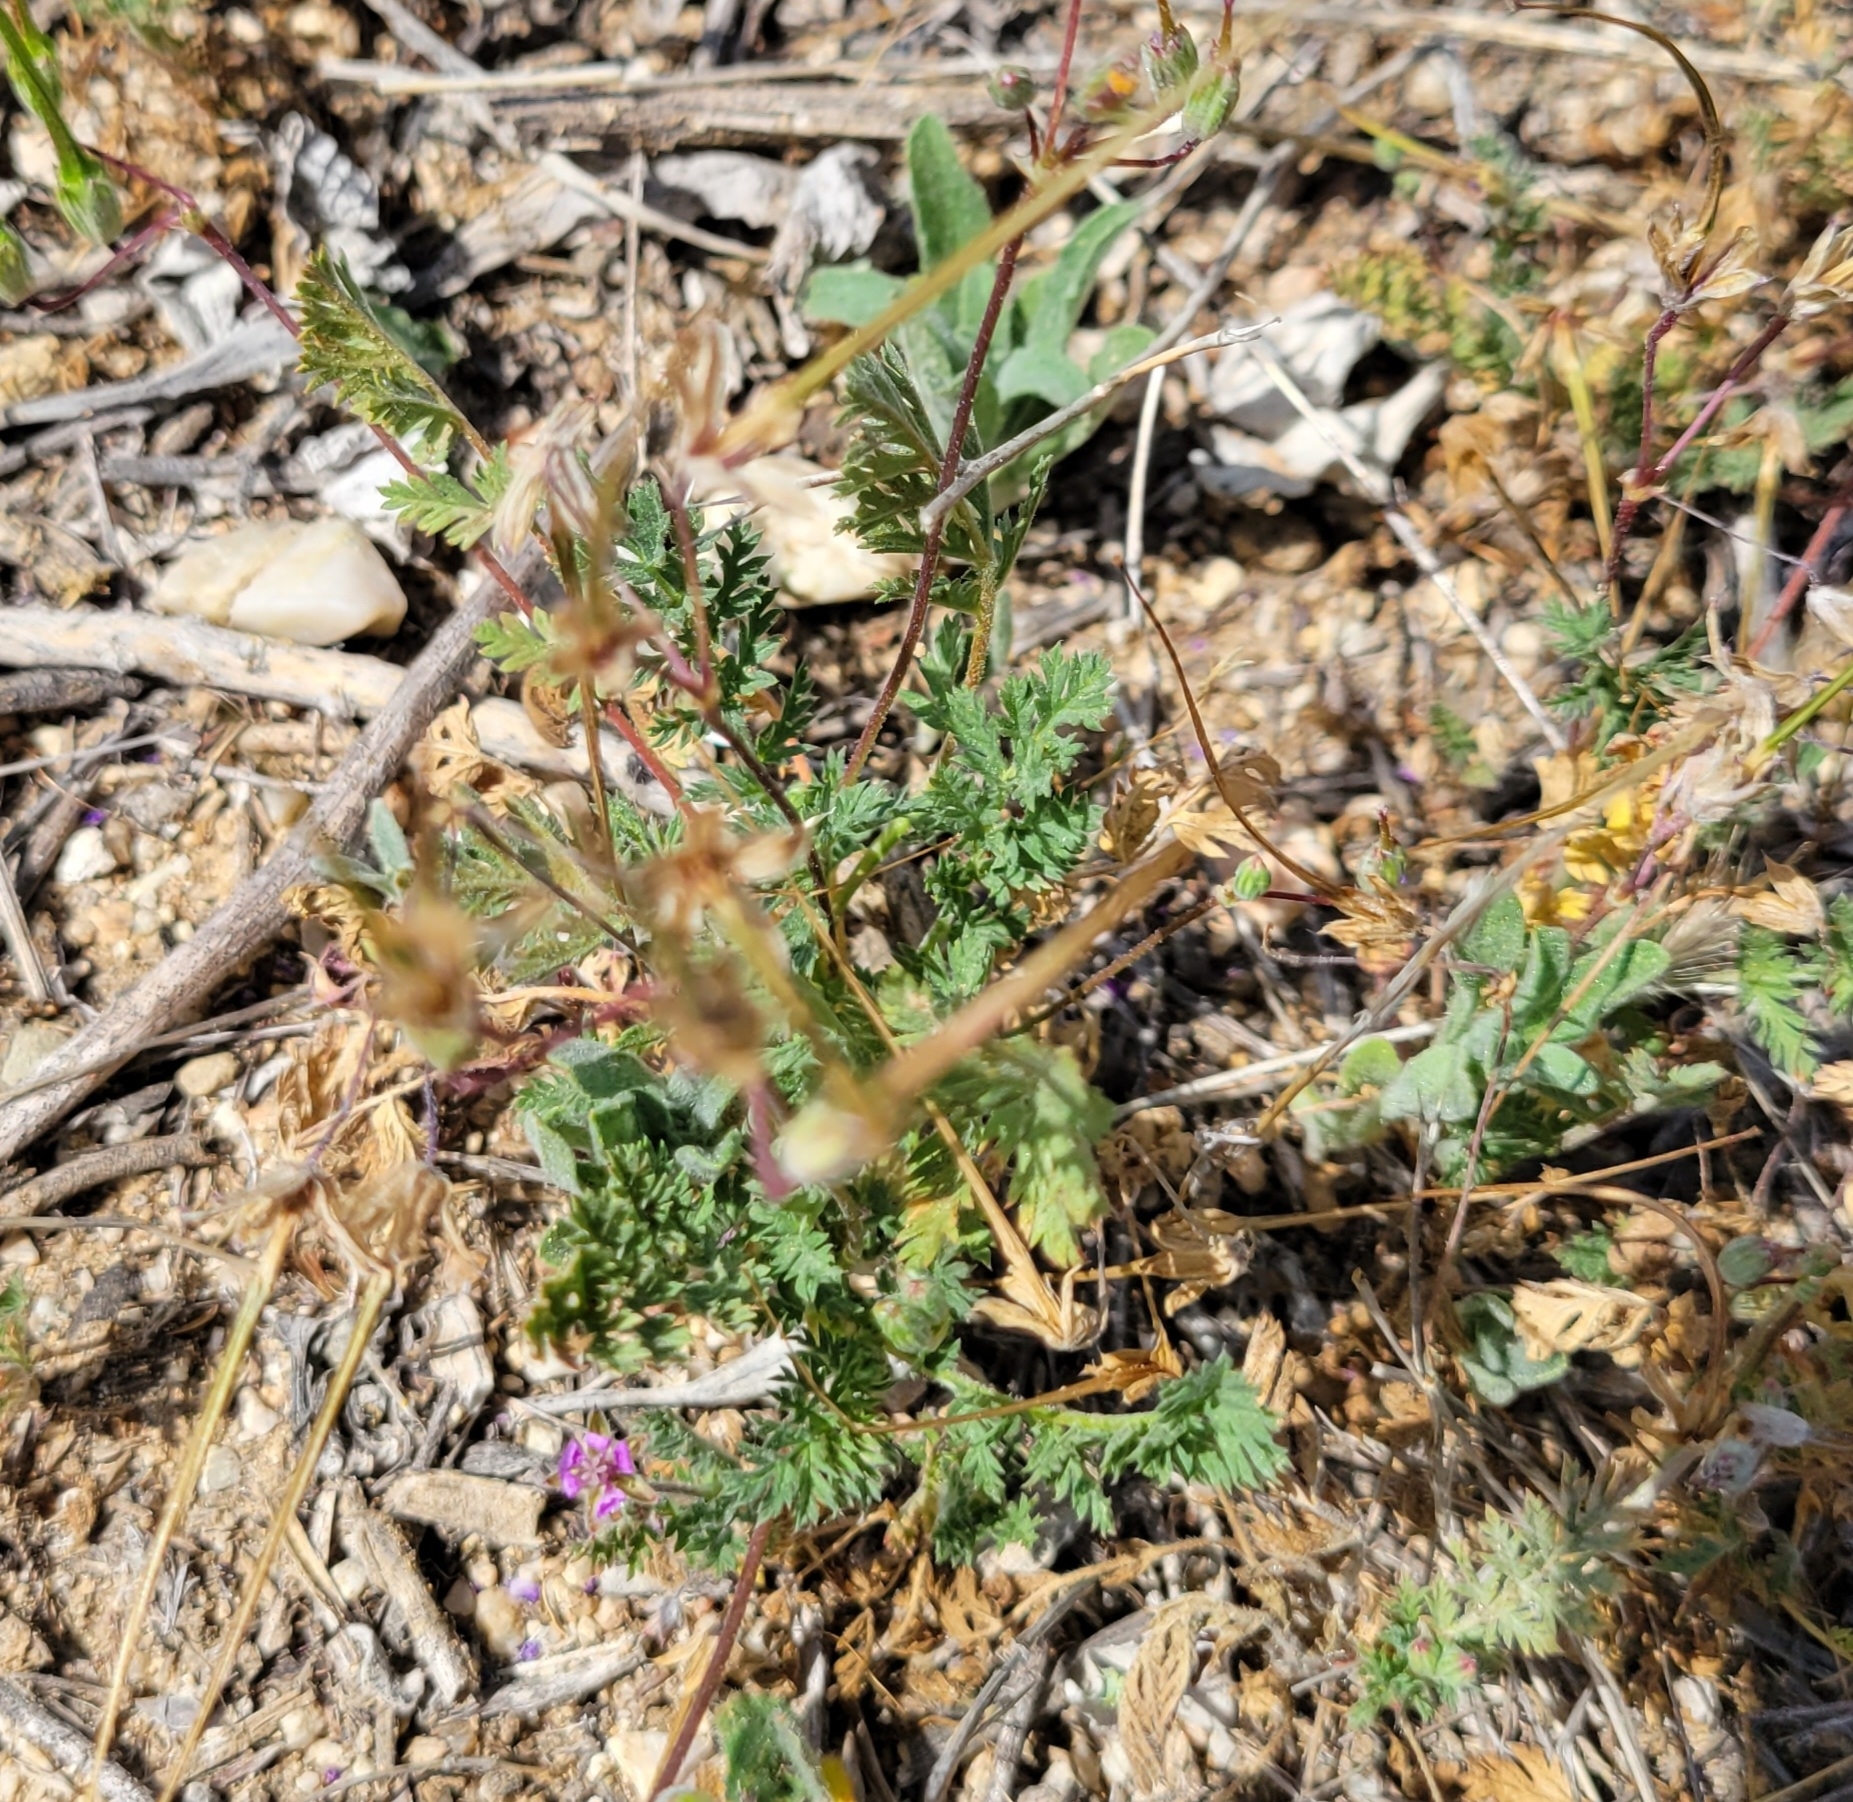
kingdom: Plantae
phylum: Tracheophyta
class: Magnoliopsida
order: Geraniales
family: Geraniaceae
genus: Erodium
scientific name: Erodium cicutarium
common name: Common stork's-bill
